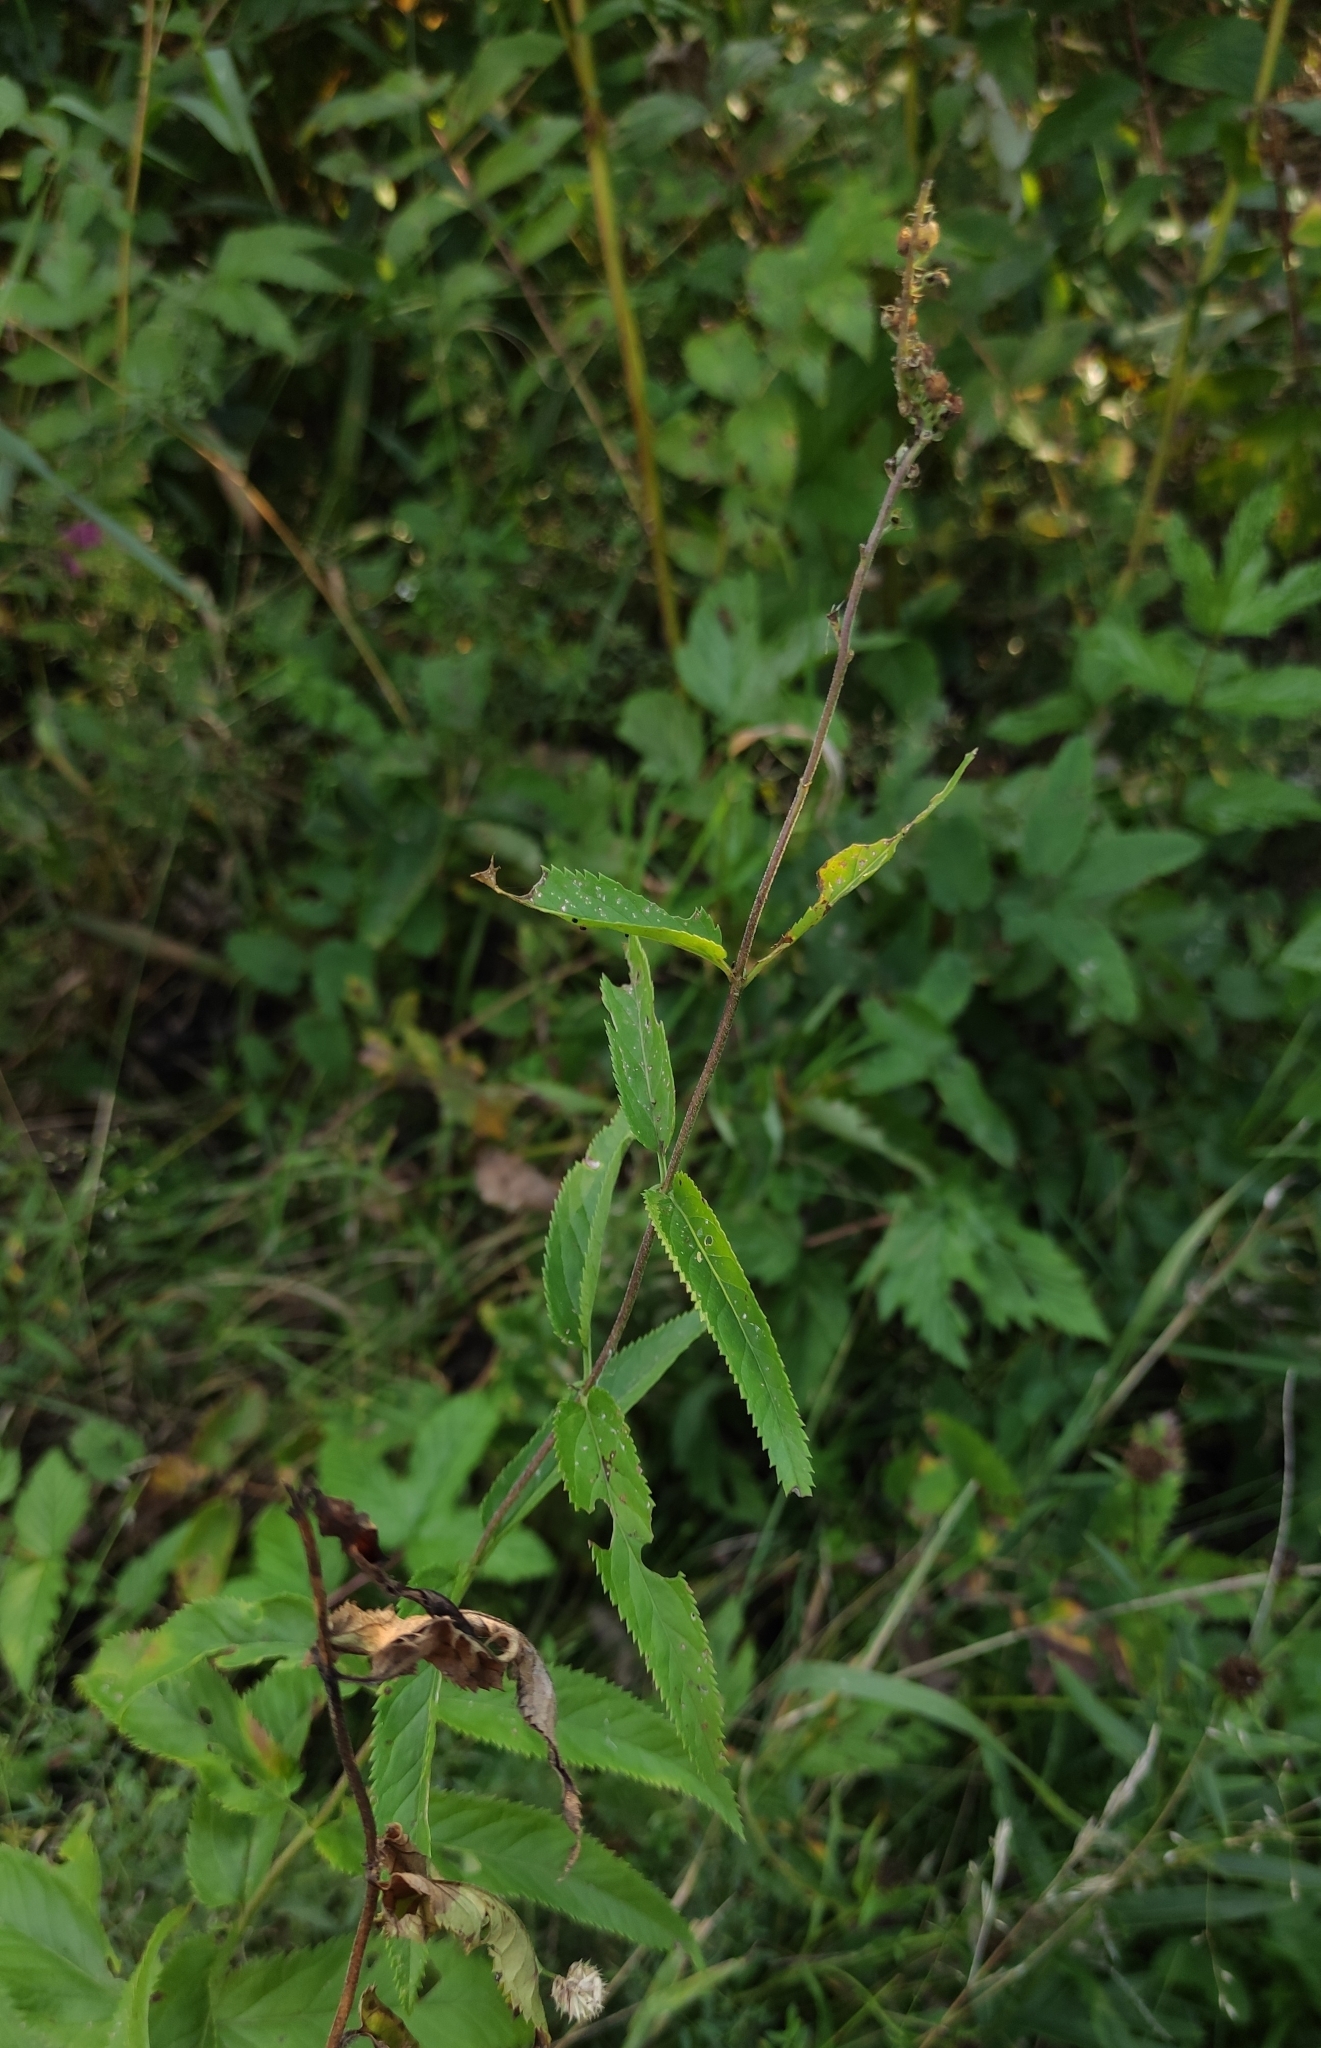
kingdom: Plantae
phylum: Tracheophyta
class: Magnoliopsida
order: Lamiales
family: Plantaginaceae
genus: Veronica
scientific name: Veronica longifolia
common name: Garden speedwell
